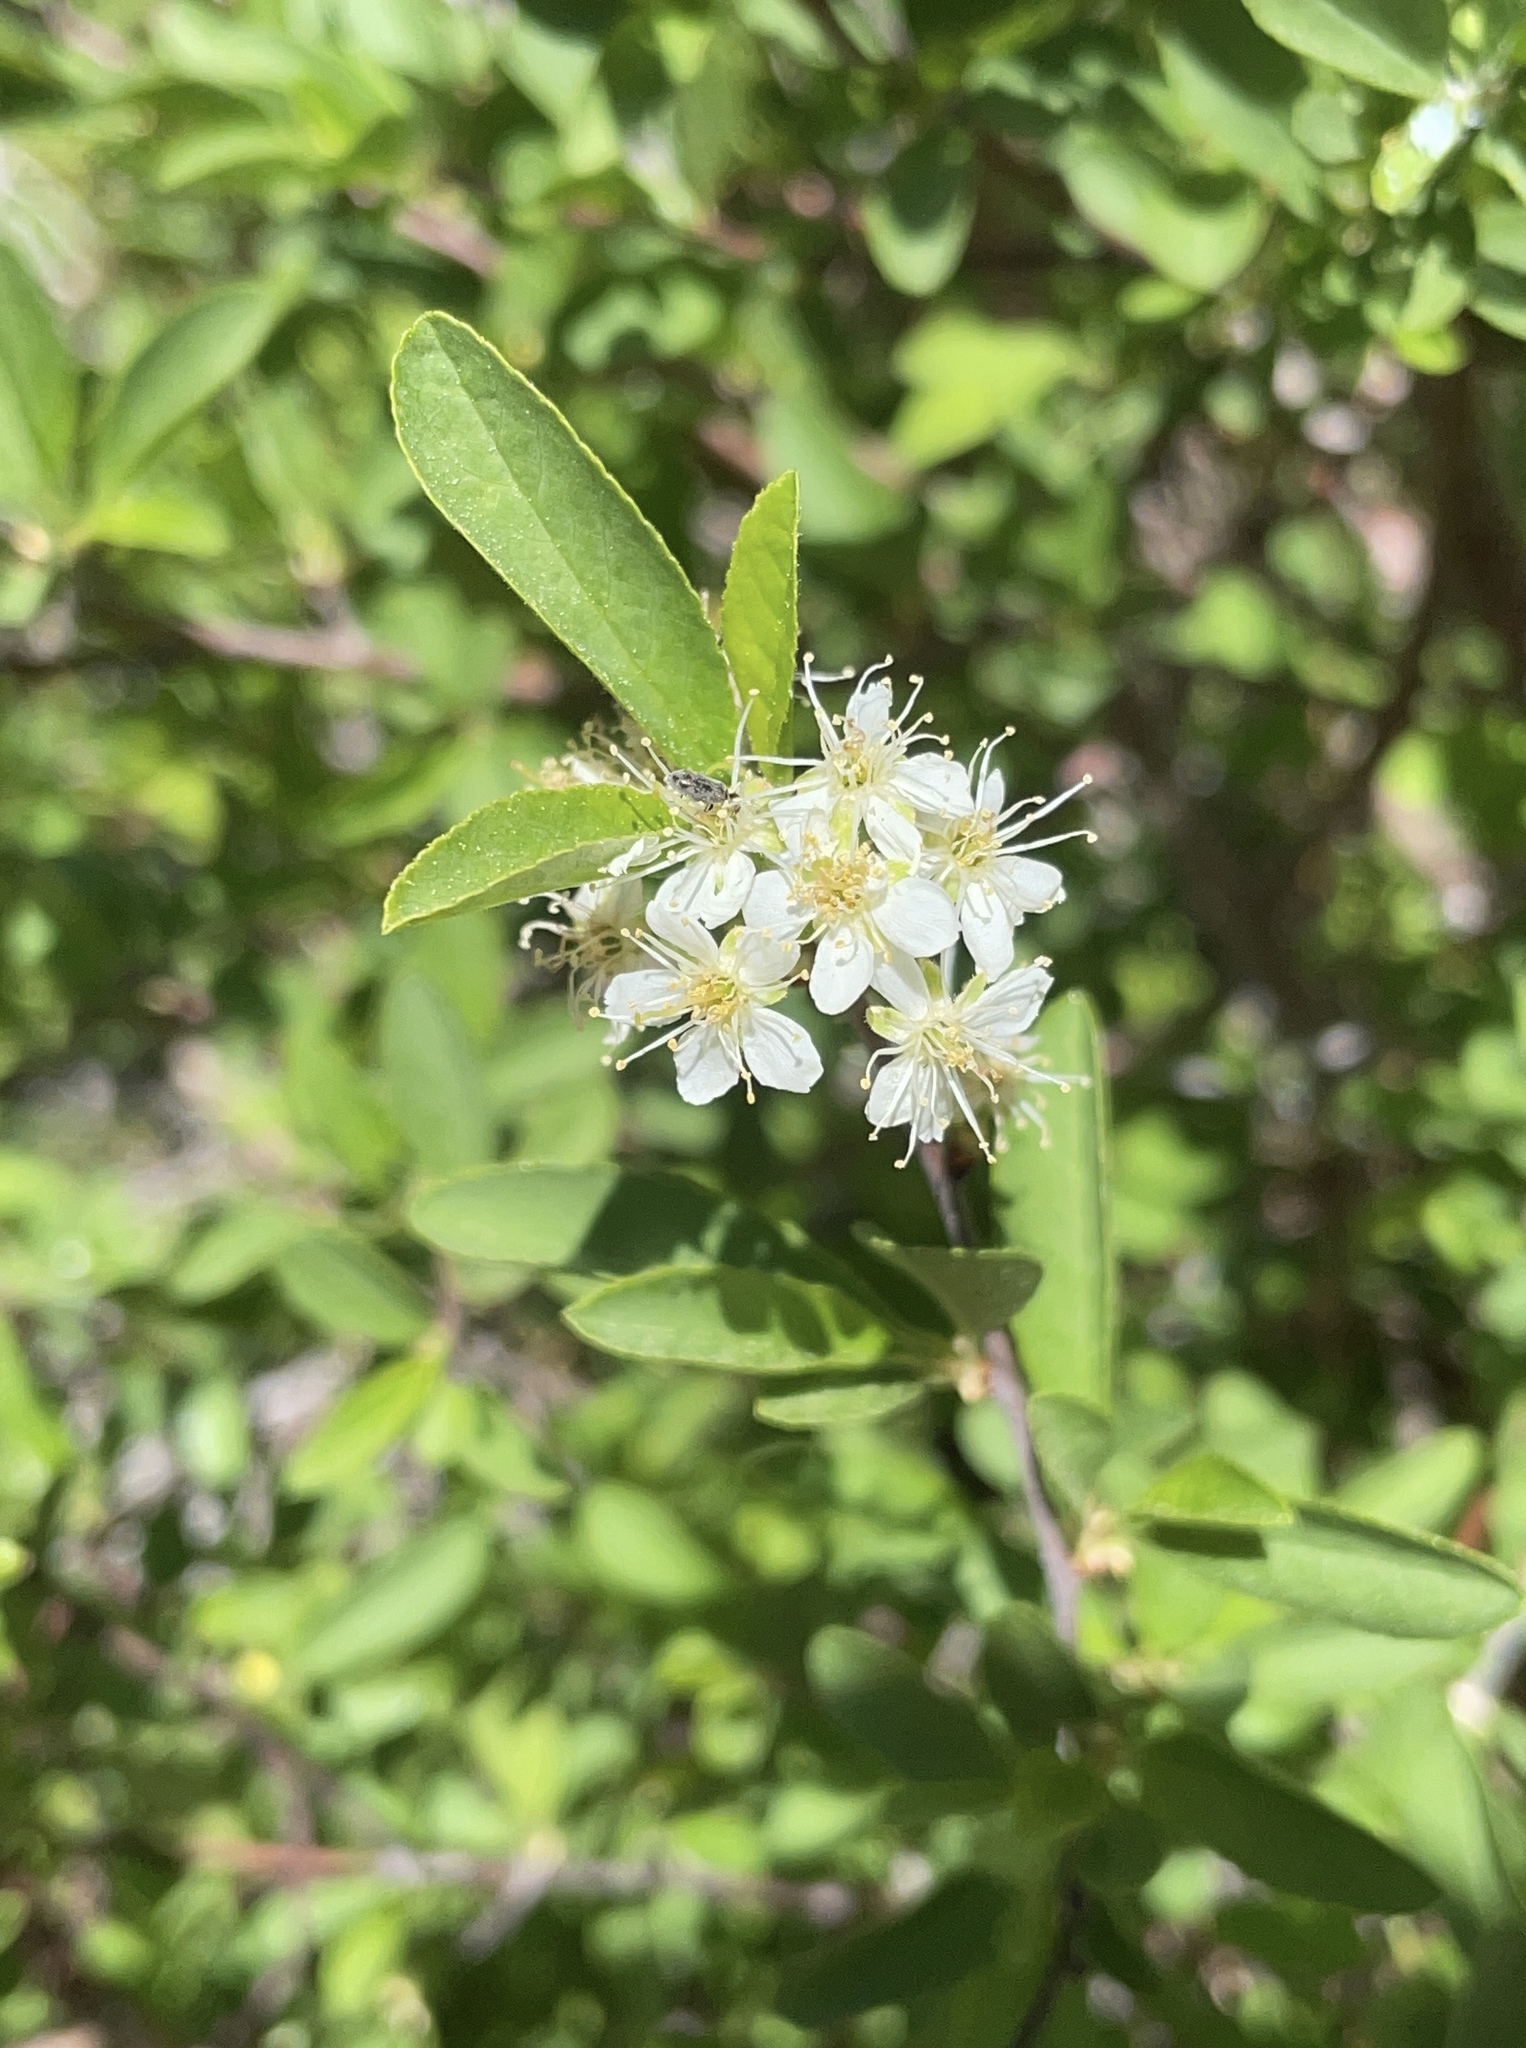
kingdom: Plantae
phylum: Tracheophyta
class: Magnoliopsida
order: Rosales
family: Rosaceae
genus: Prunus
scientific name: Prunus emarginata
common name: Bitter cherry
